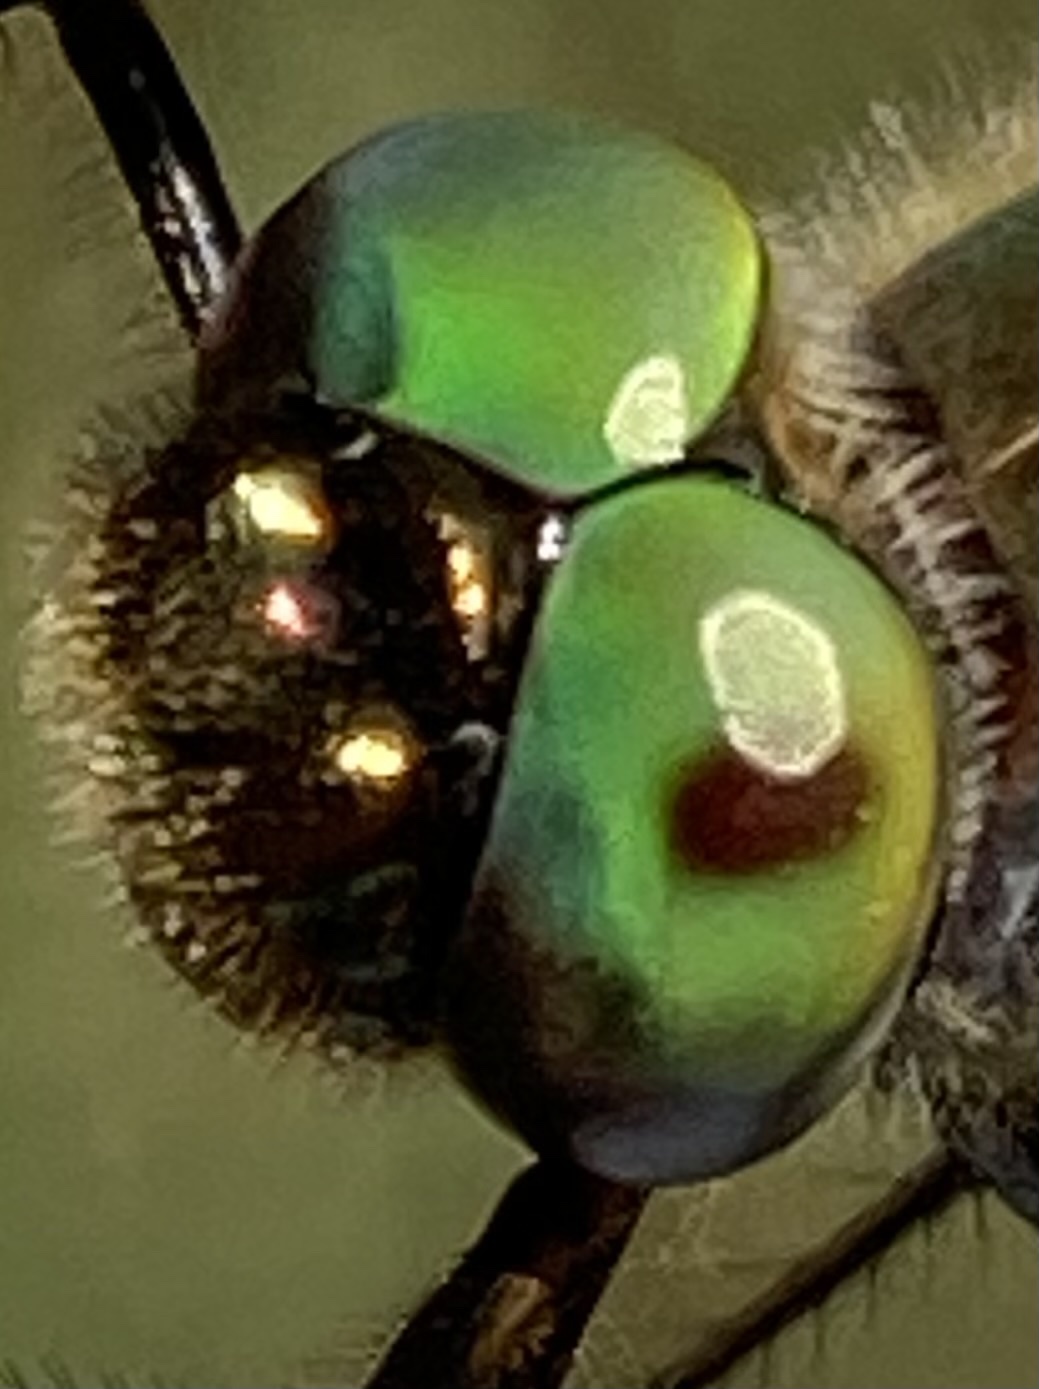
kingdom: Animalia
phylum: Arthropoda
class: Insecta
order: Odonata
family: Corduliidae
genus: Oxygastra
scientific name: Oxygastra curtisii
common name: Orange-spotted emerald
